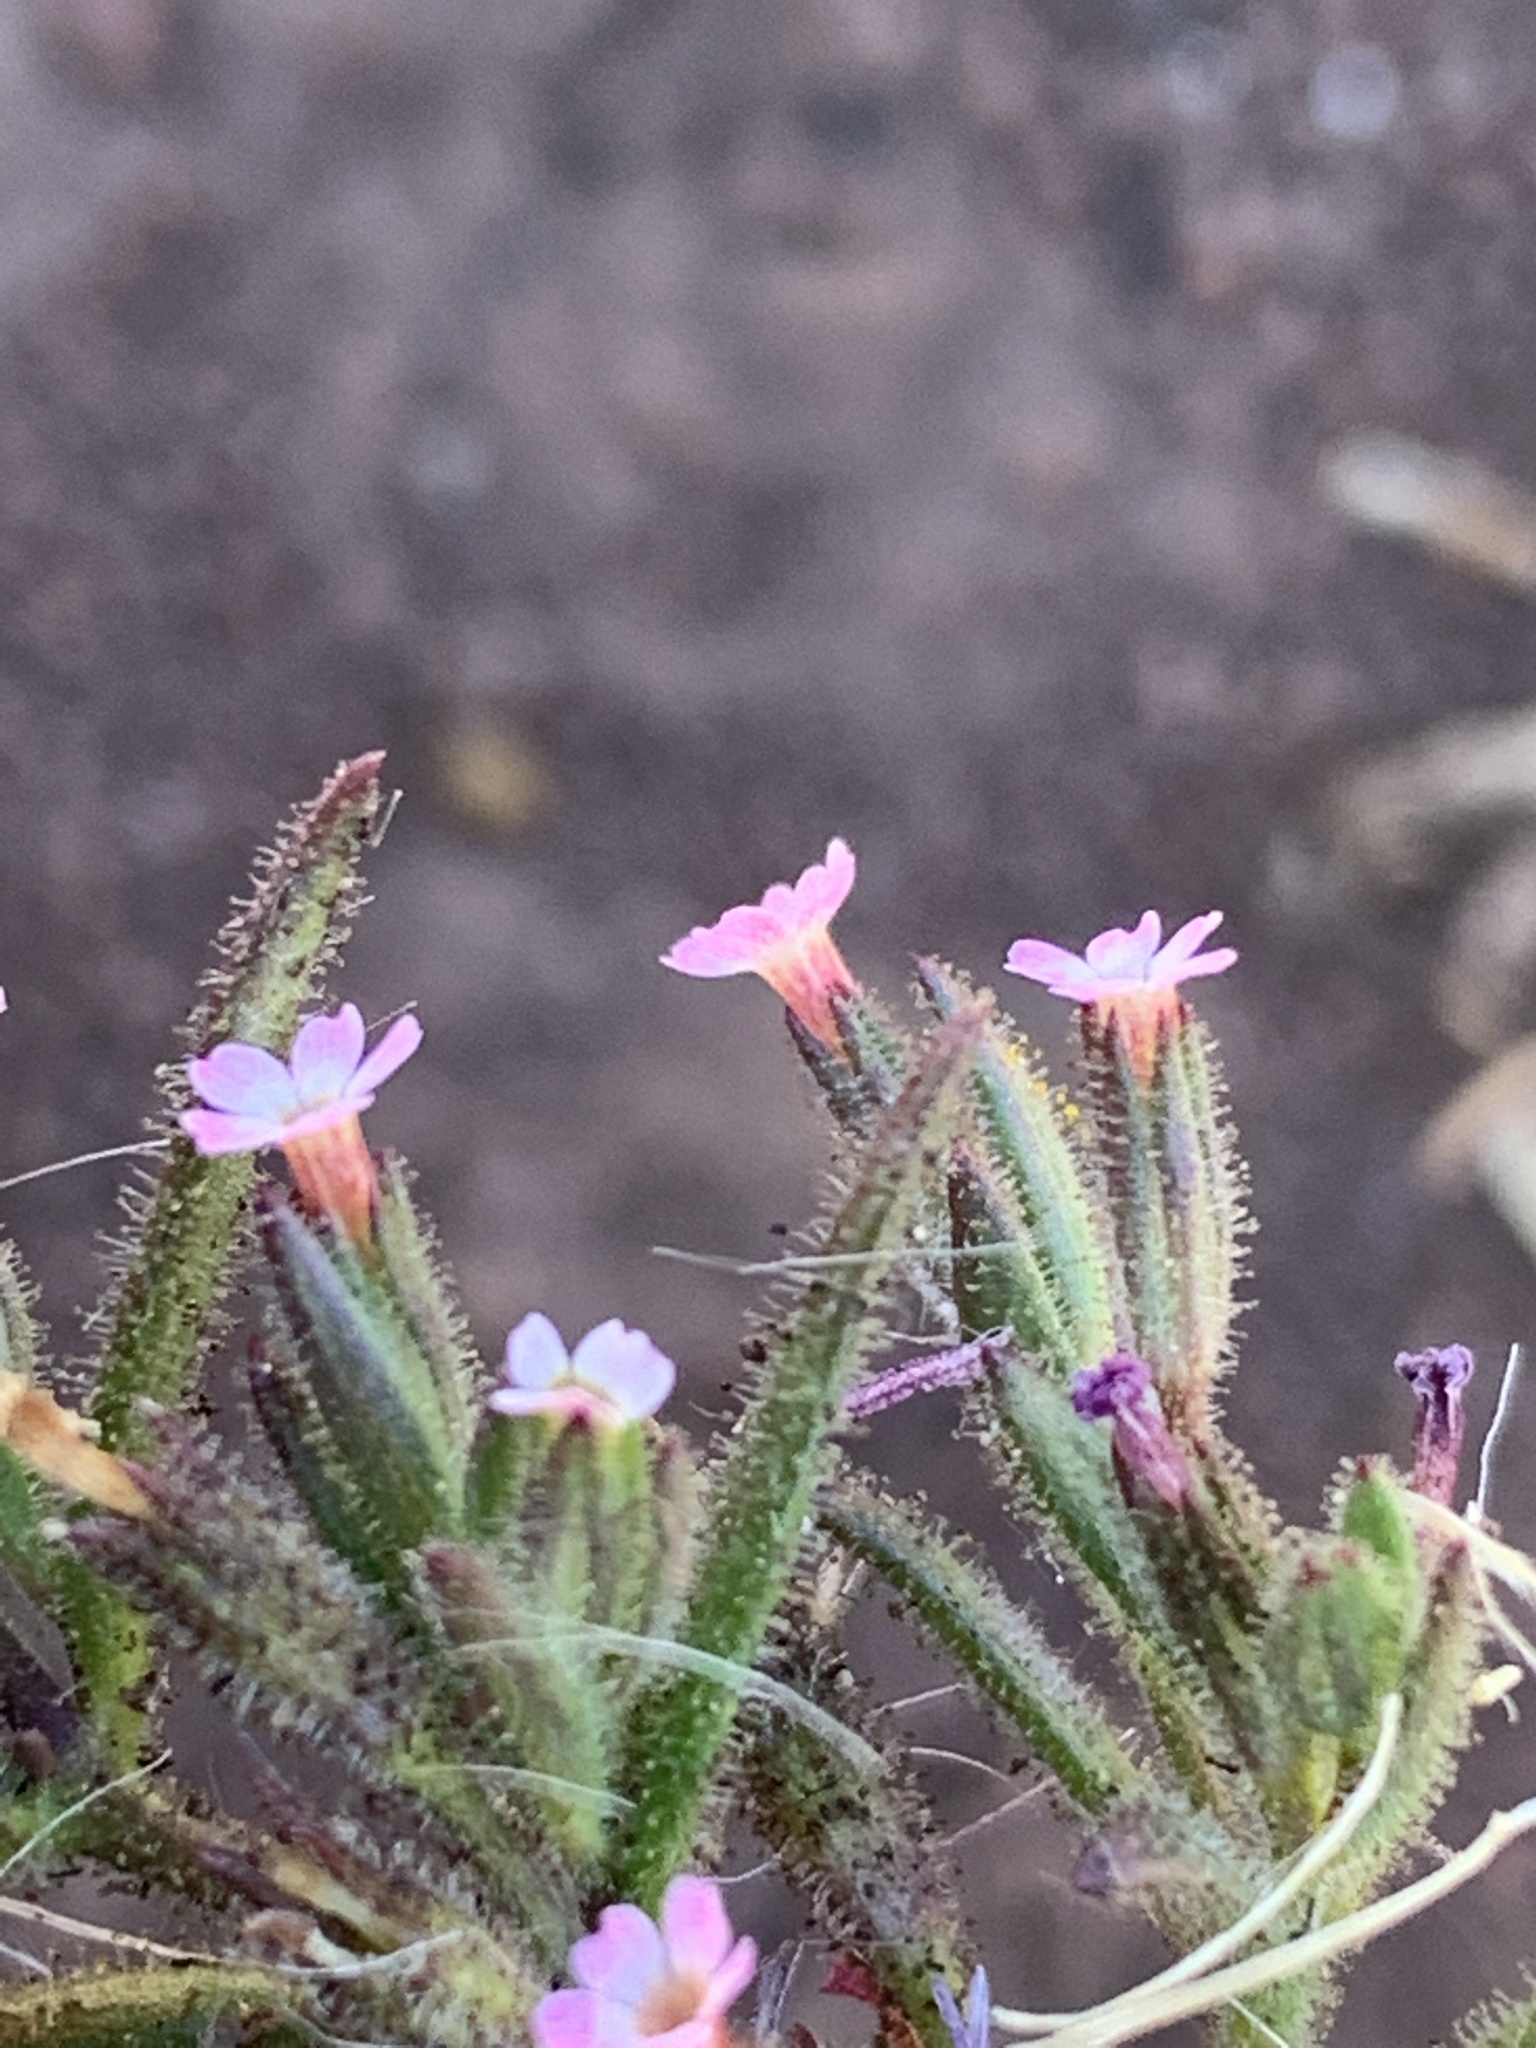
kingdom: Plantae
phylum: Tracheophyta
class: Magnoliopsida
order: Ericales
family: Polemoniaceae
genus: Phlox
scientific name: Phlox gracilis
